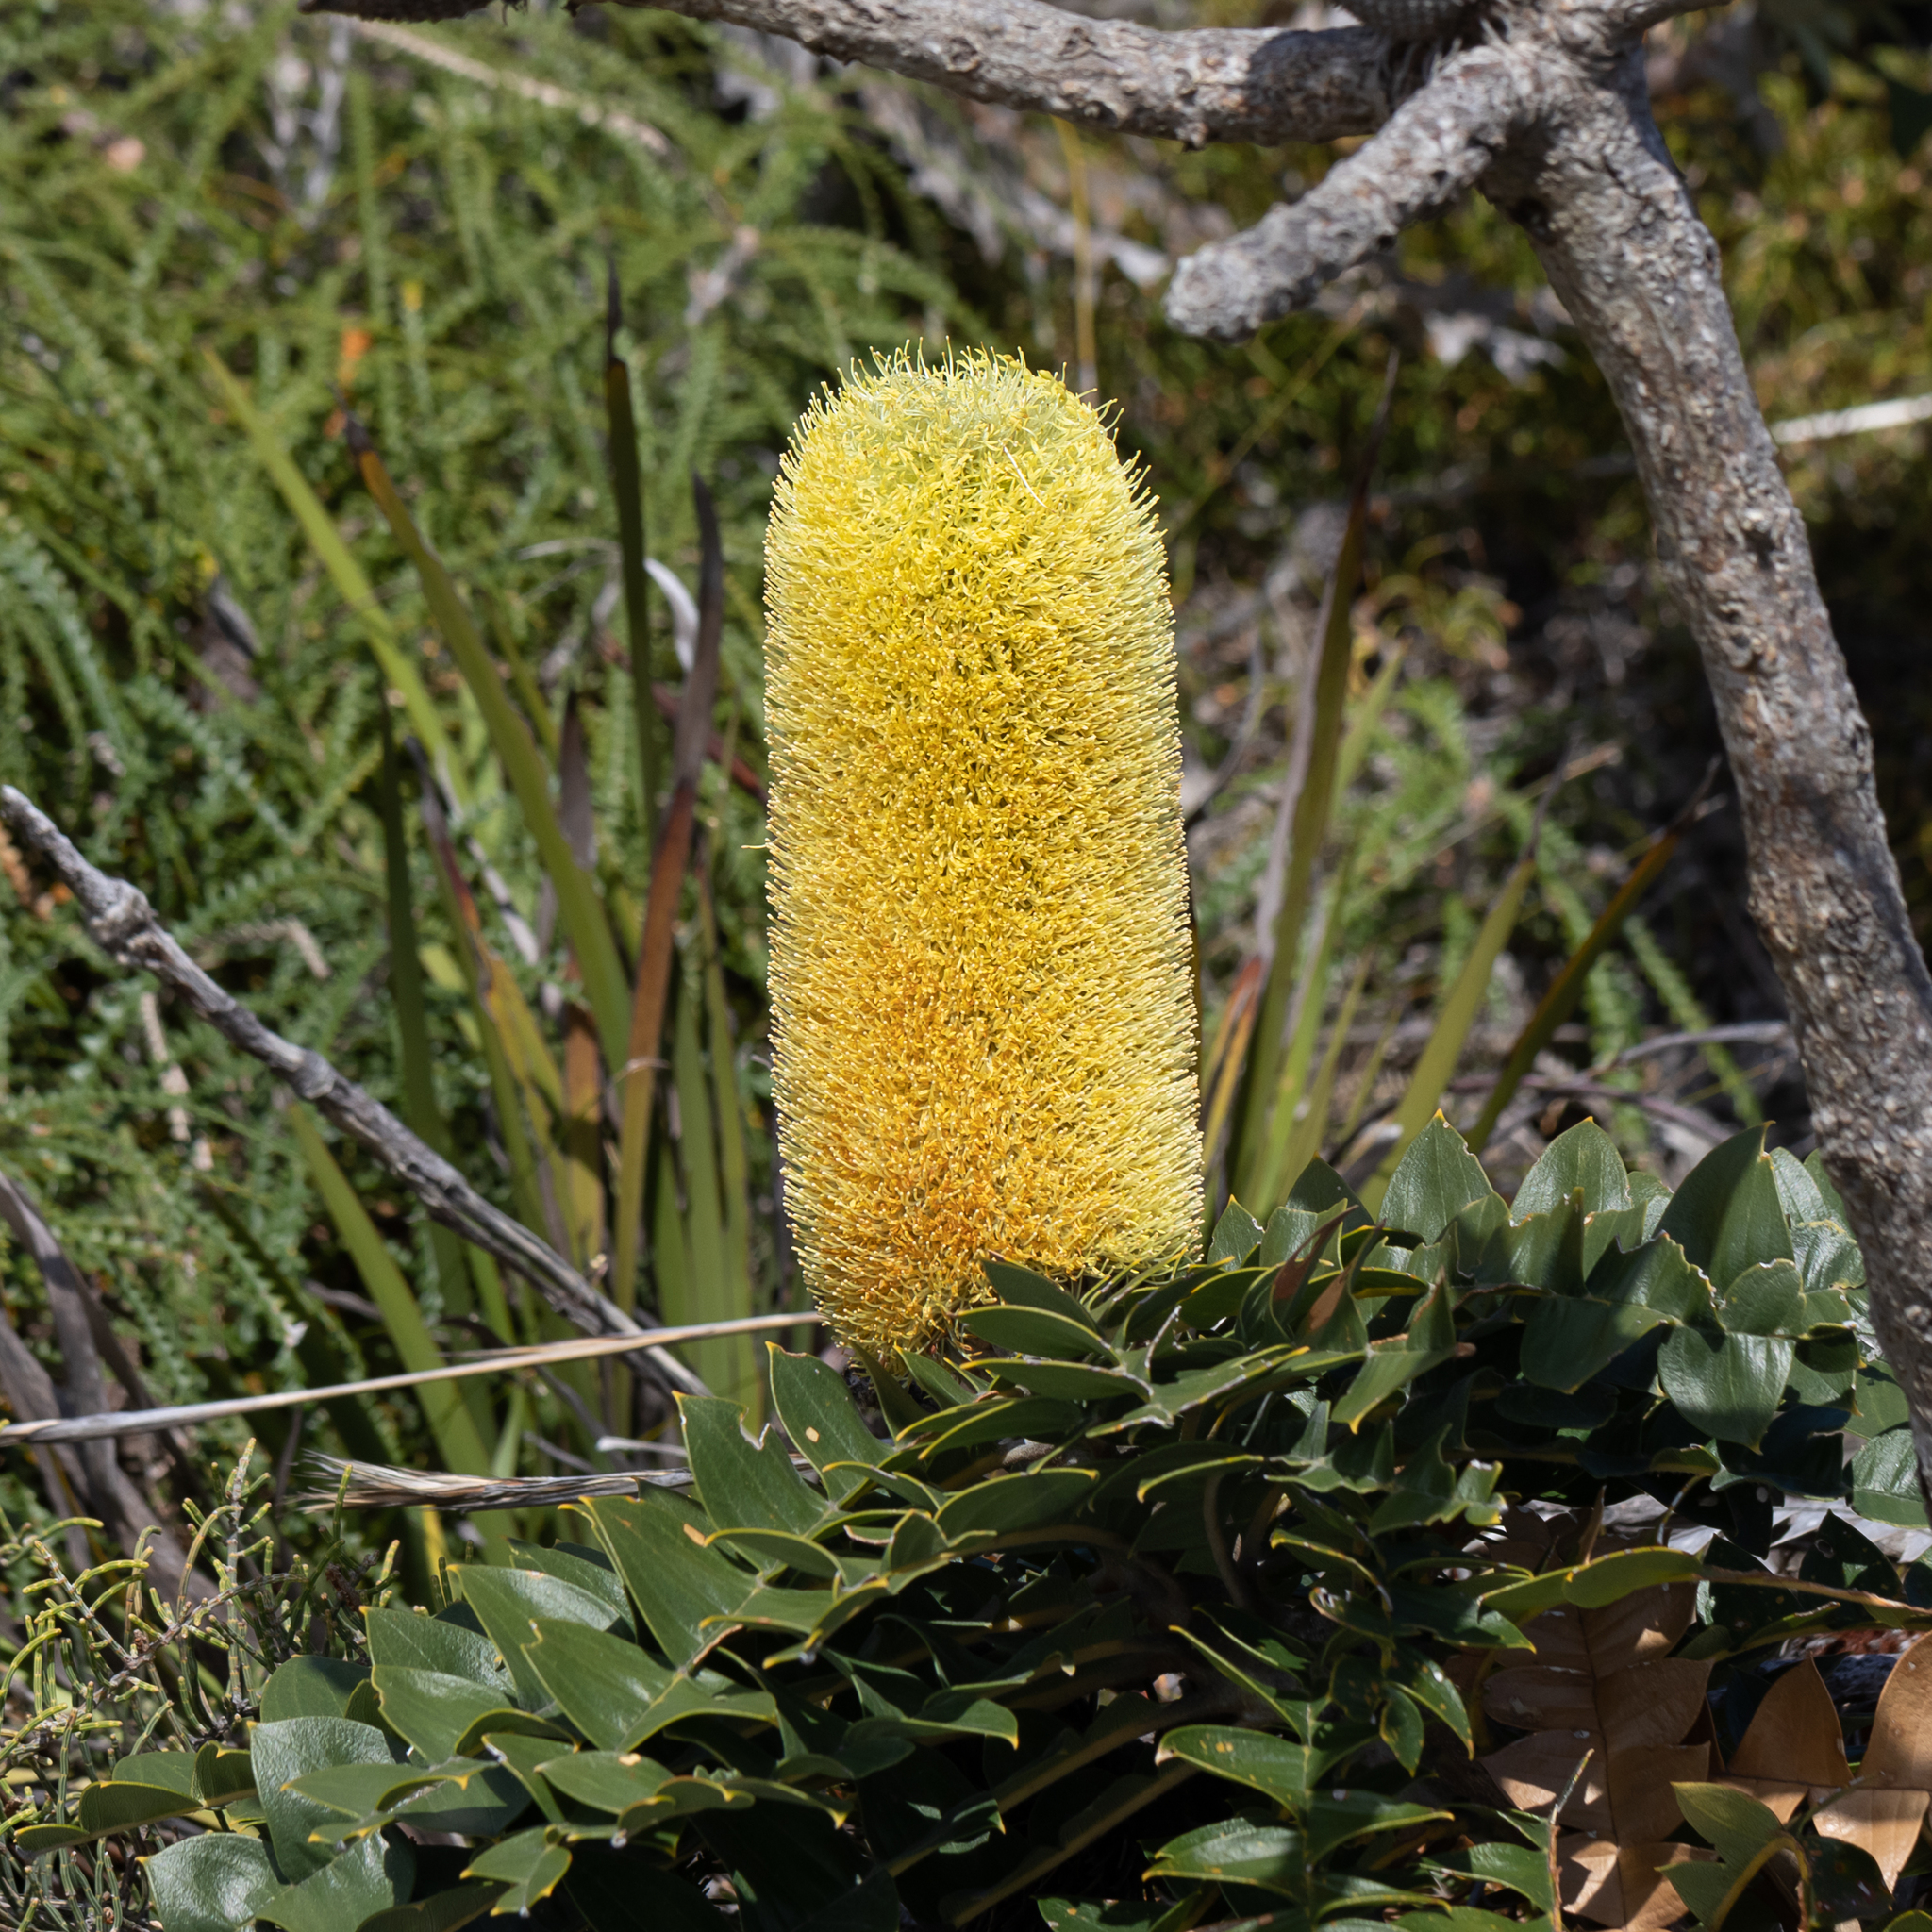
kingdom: Plantae
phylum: Tracheophyta
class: Magnoliopsida
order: Proteales
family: Proteaceae
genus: Banksia
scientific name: Banksia grandis
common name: Giant banksia
